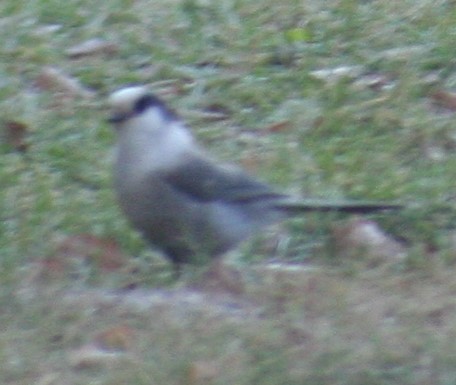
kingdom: Animalia
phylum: Chordata
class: Aves
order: Passeriformes
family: Corvidae
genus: Perisoreus
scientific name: Perisoreus canadensis
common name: Gray jay
